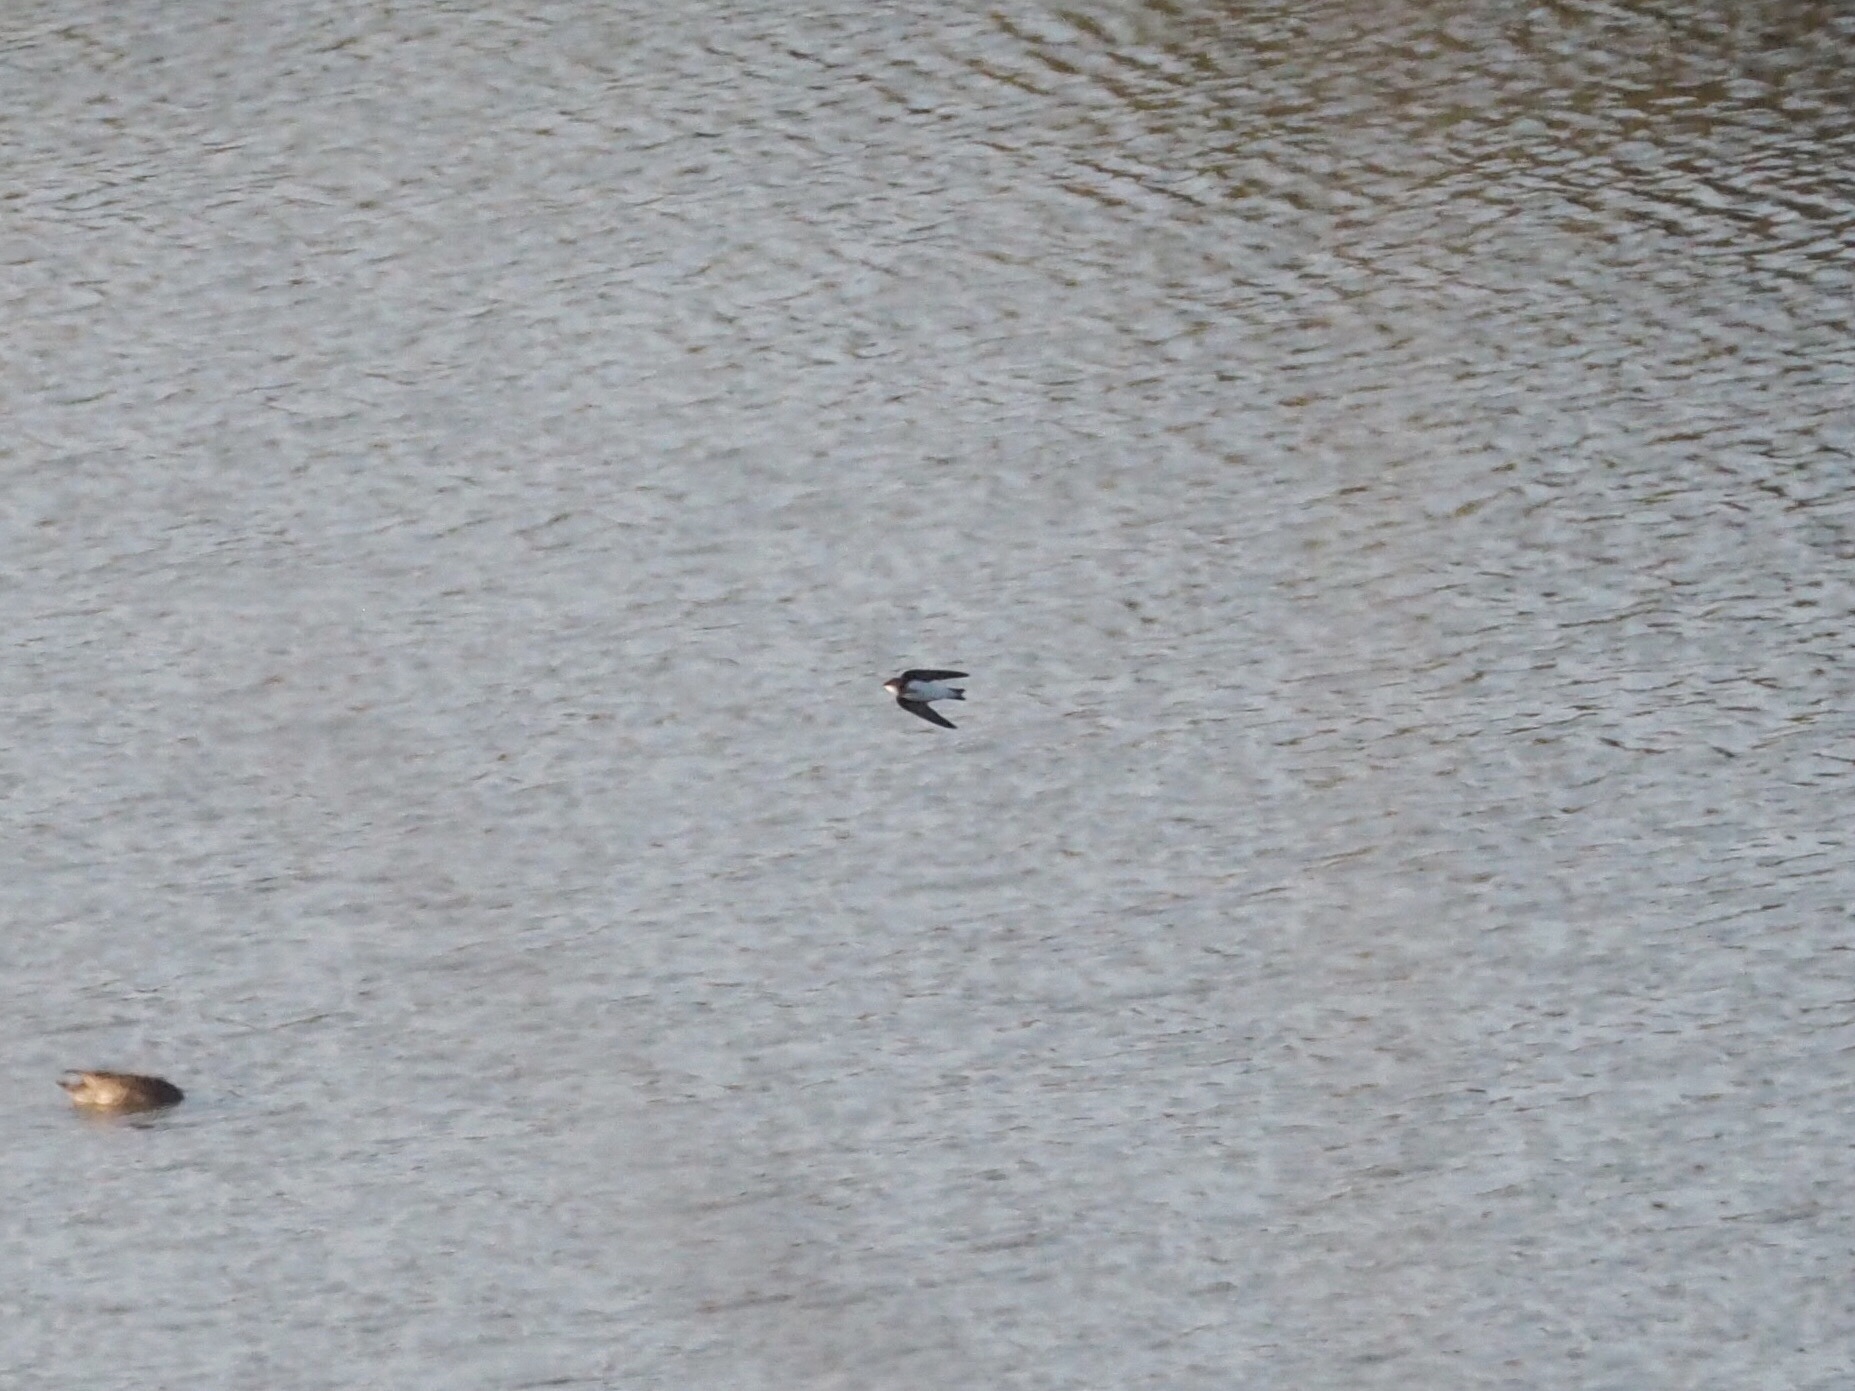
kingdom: Animalia
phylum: Chordata
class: Aves
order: Passeriformes
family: Hirundinidae
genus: Riparia
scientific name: Riparia riparia
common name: Sand martin
